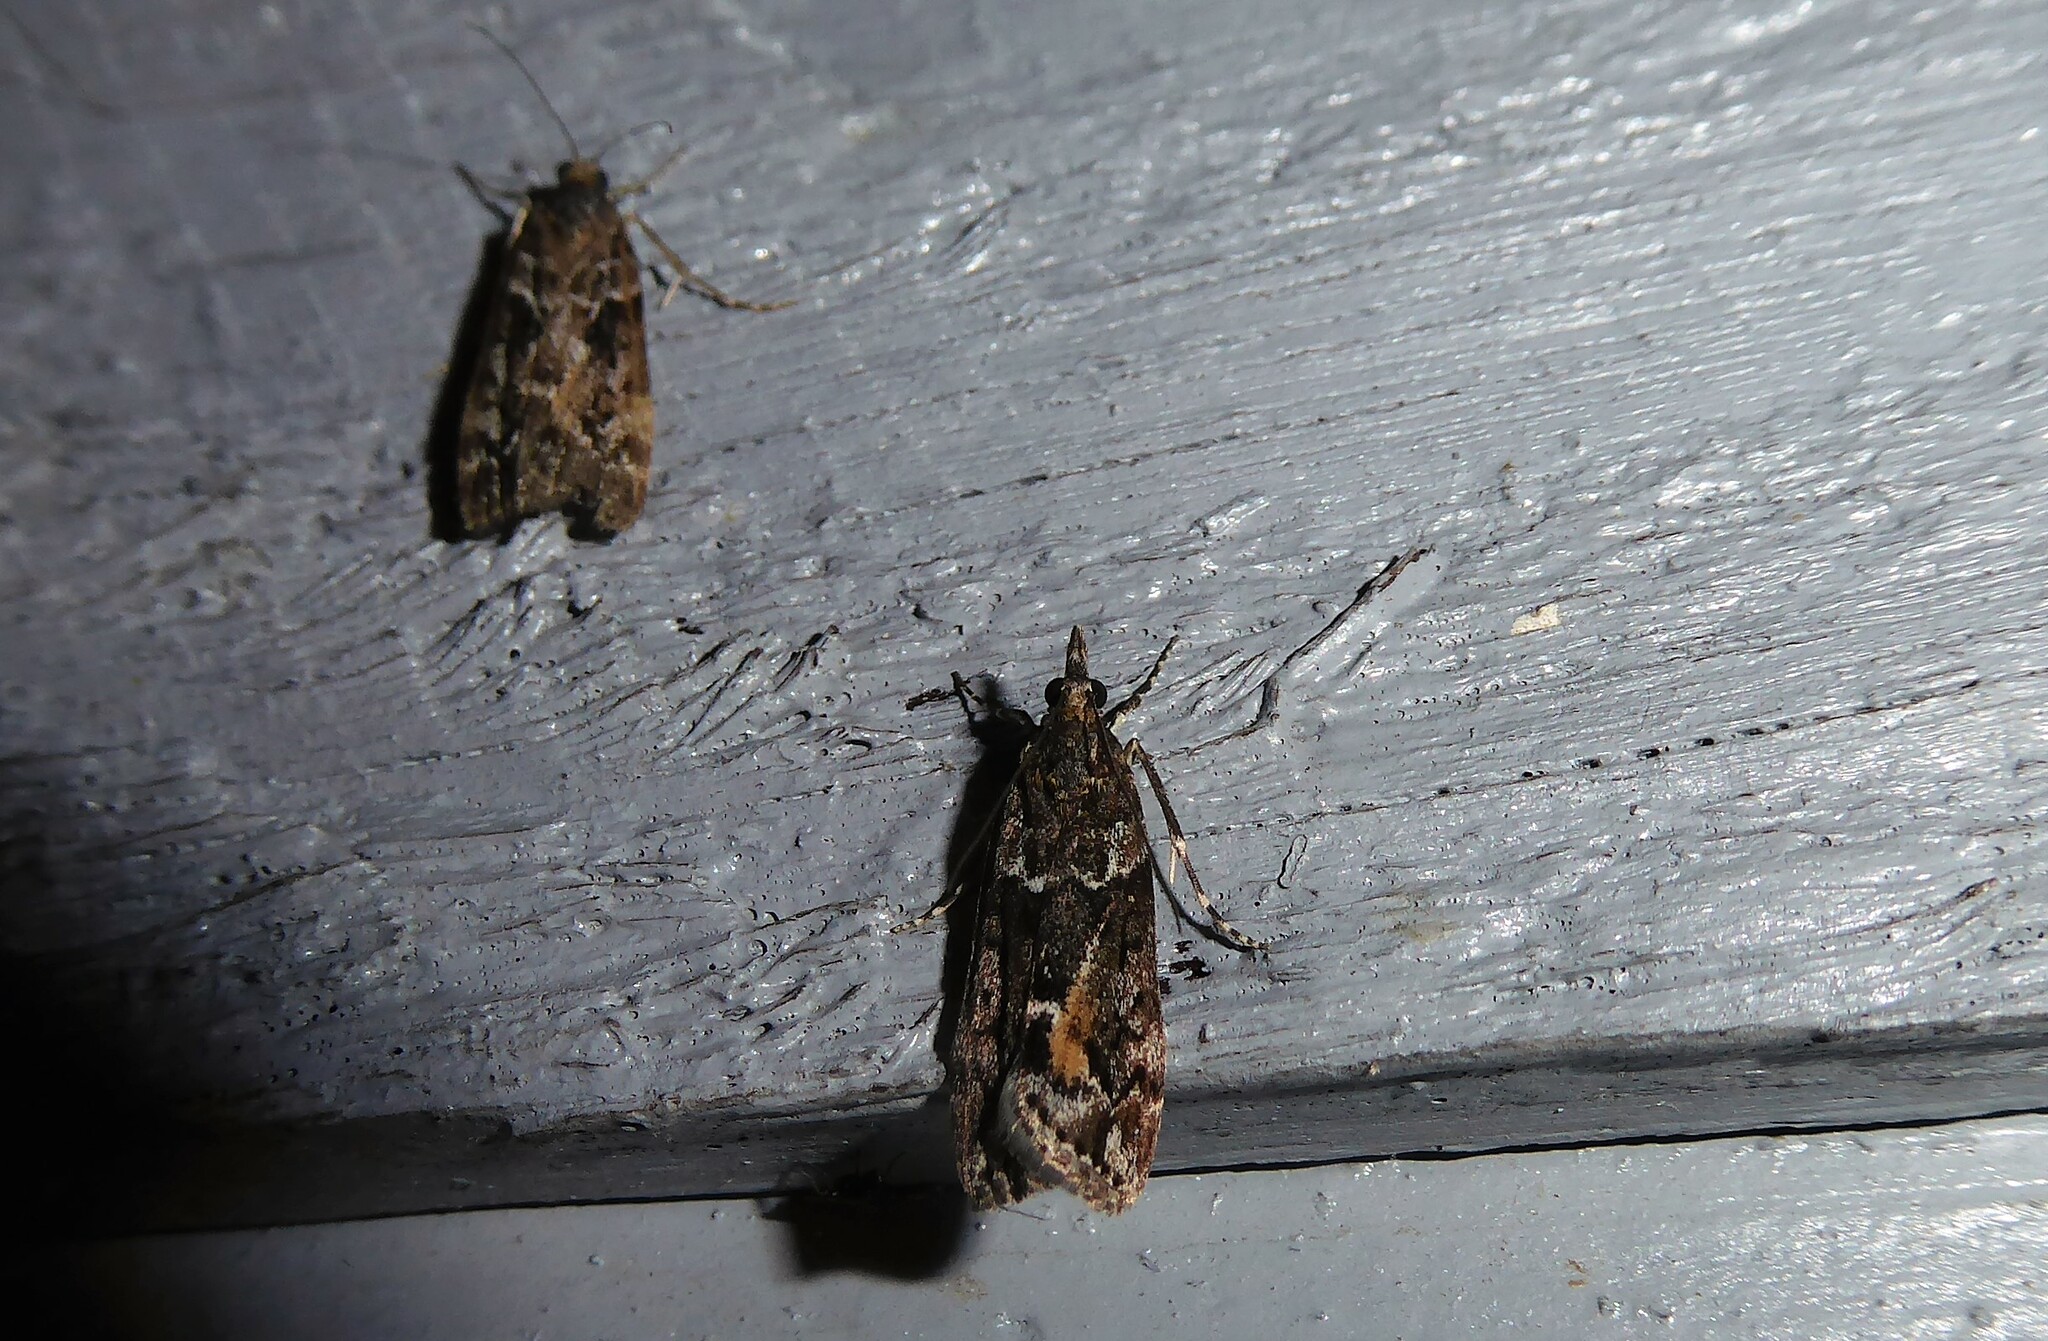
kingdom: Animalia
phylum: Arthropoda
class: Insecta
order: Lepidoptera
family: Crambidae
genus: Eudonia
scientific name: Eudonia submarginalis
